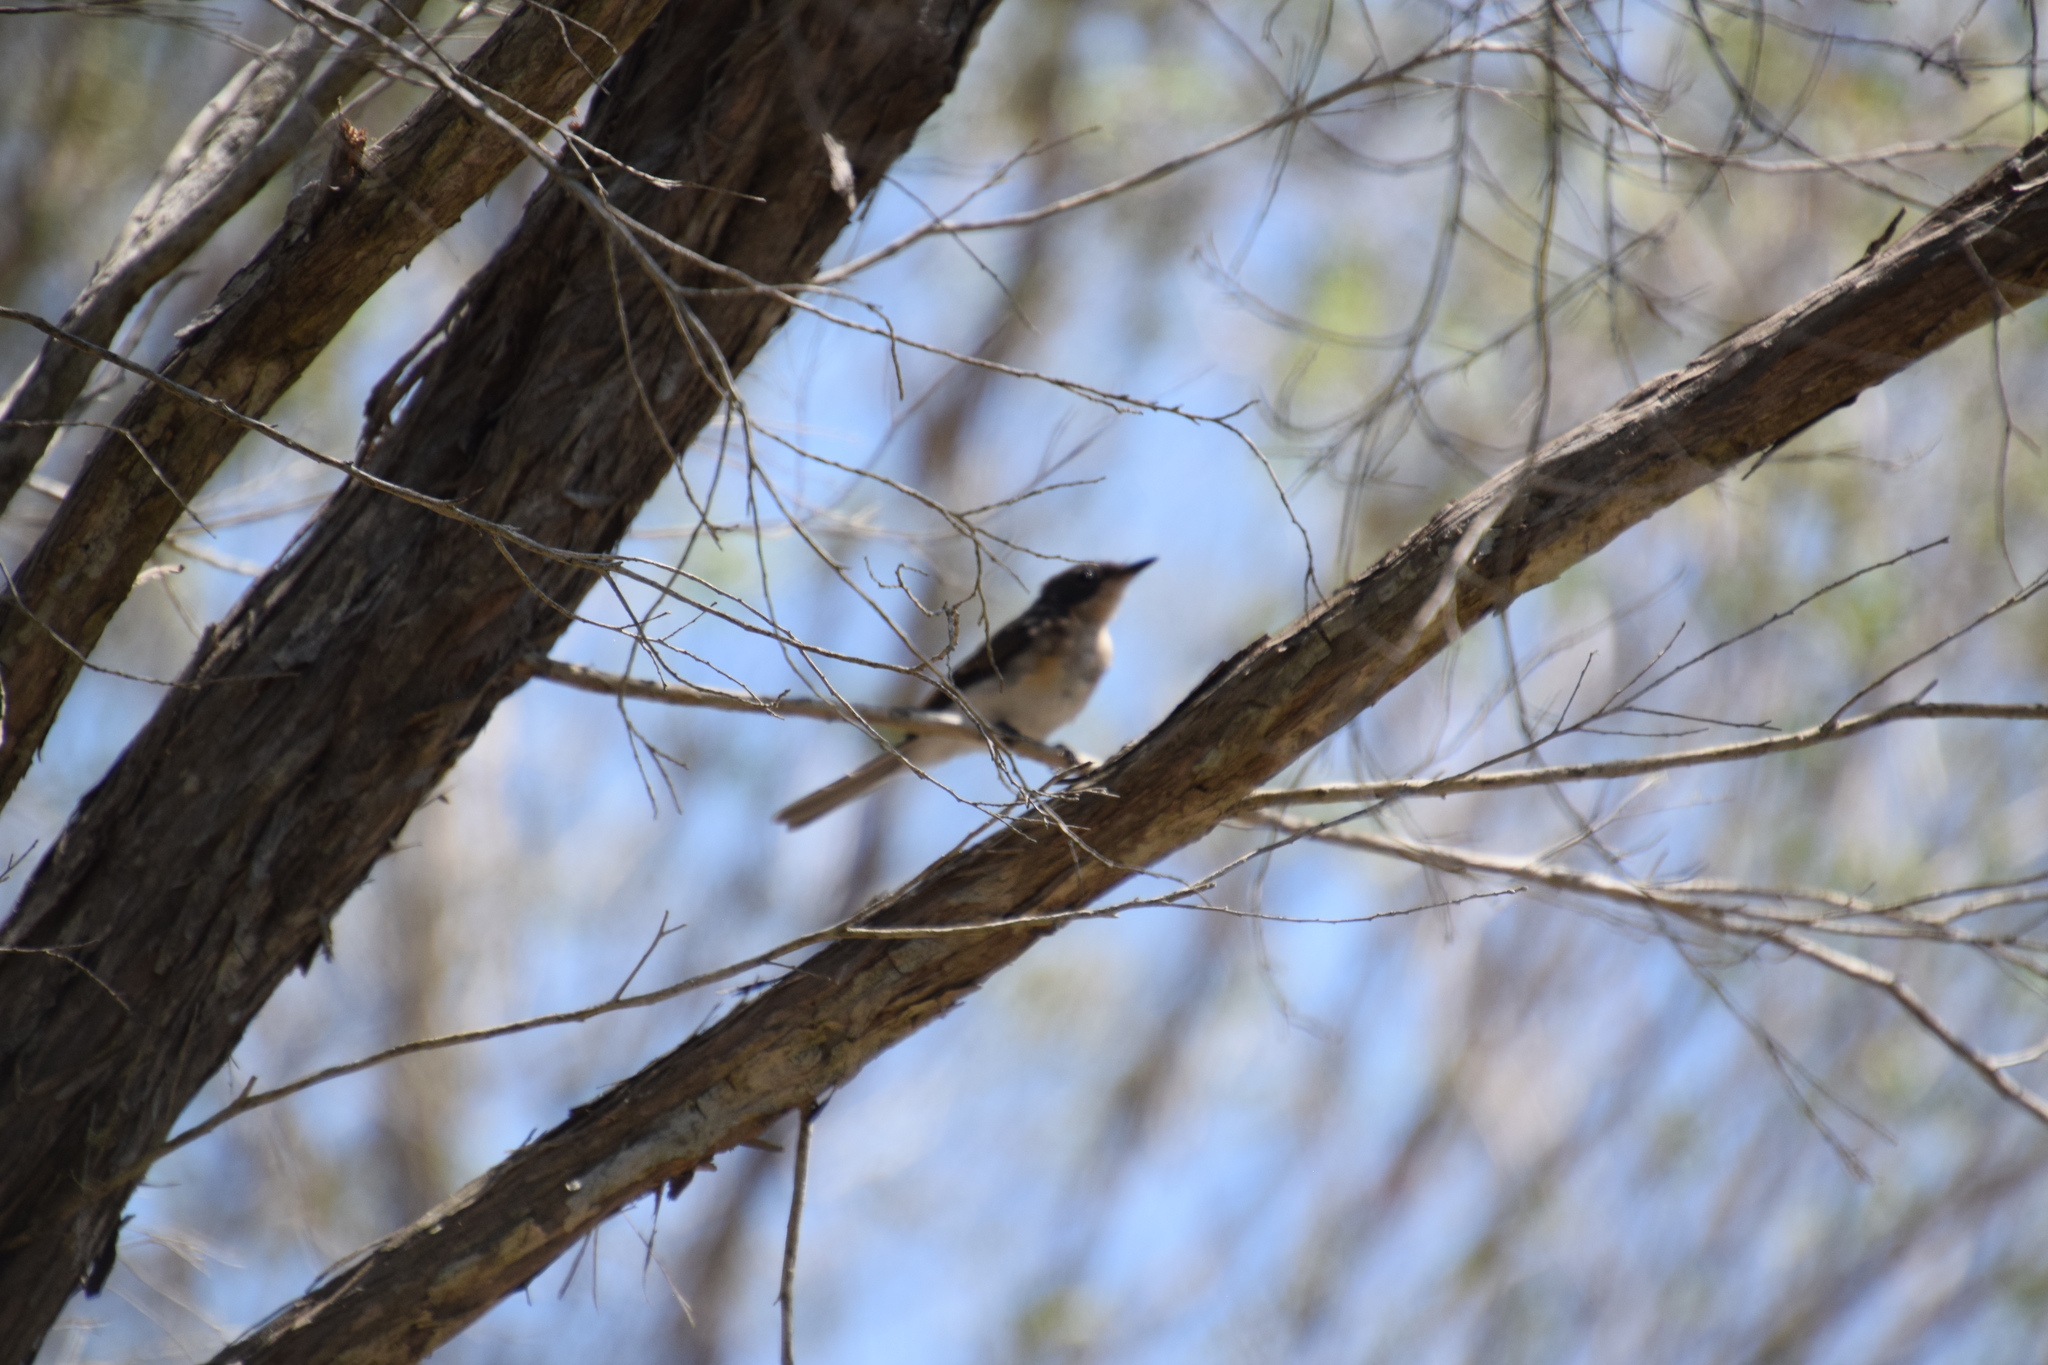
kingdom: Animalia
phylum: Chordata
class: Aves
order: Passeriformes
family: Monarchidae
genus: Myiagra
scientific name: Myiagra rubecula
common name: Leaden flycatcher
